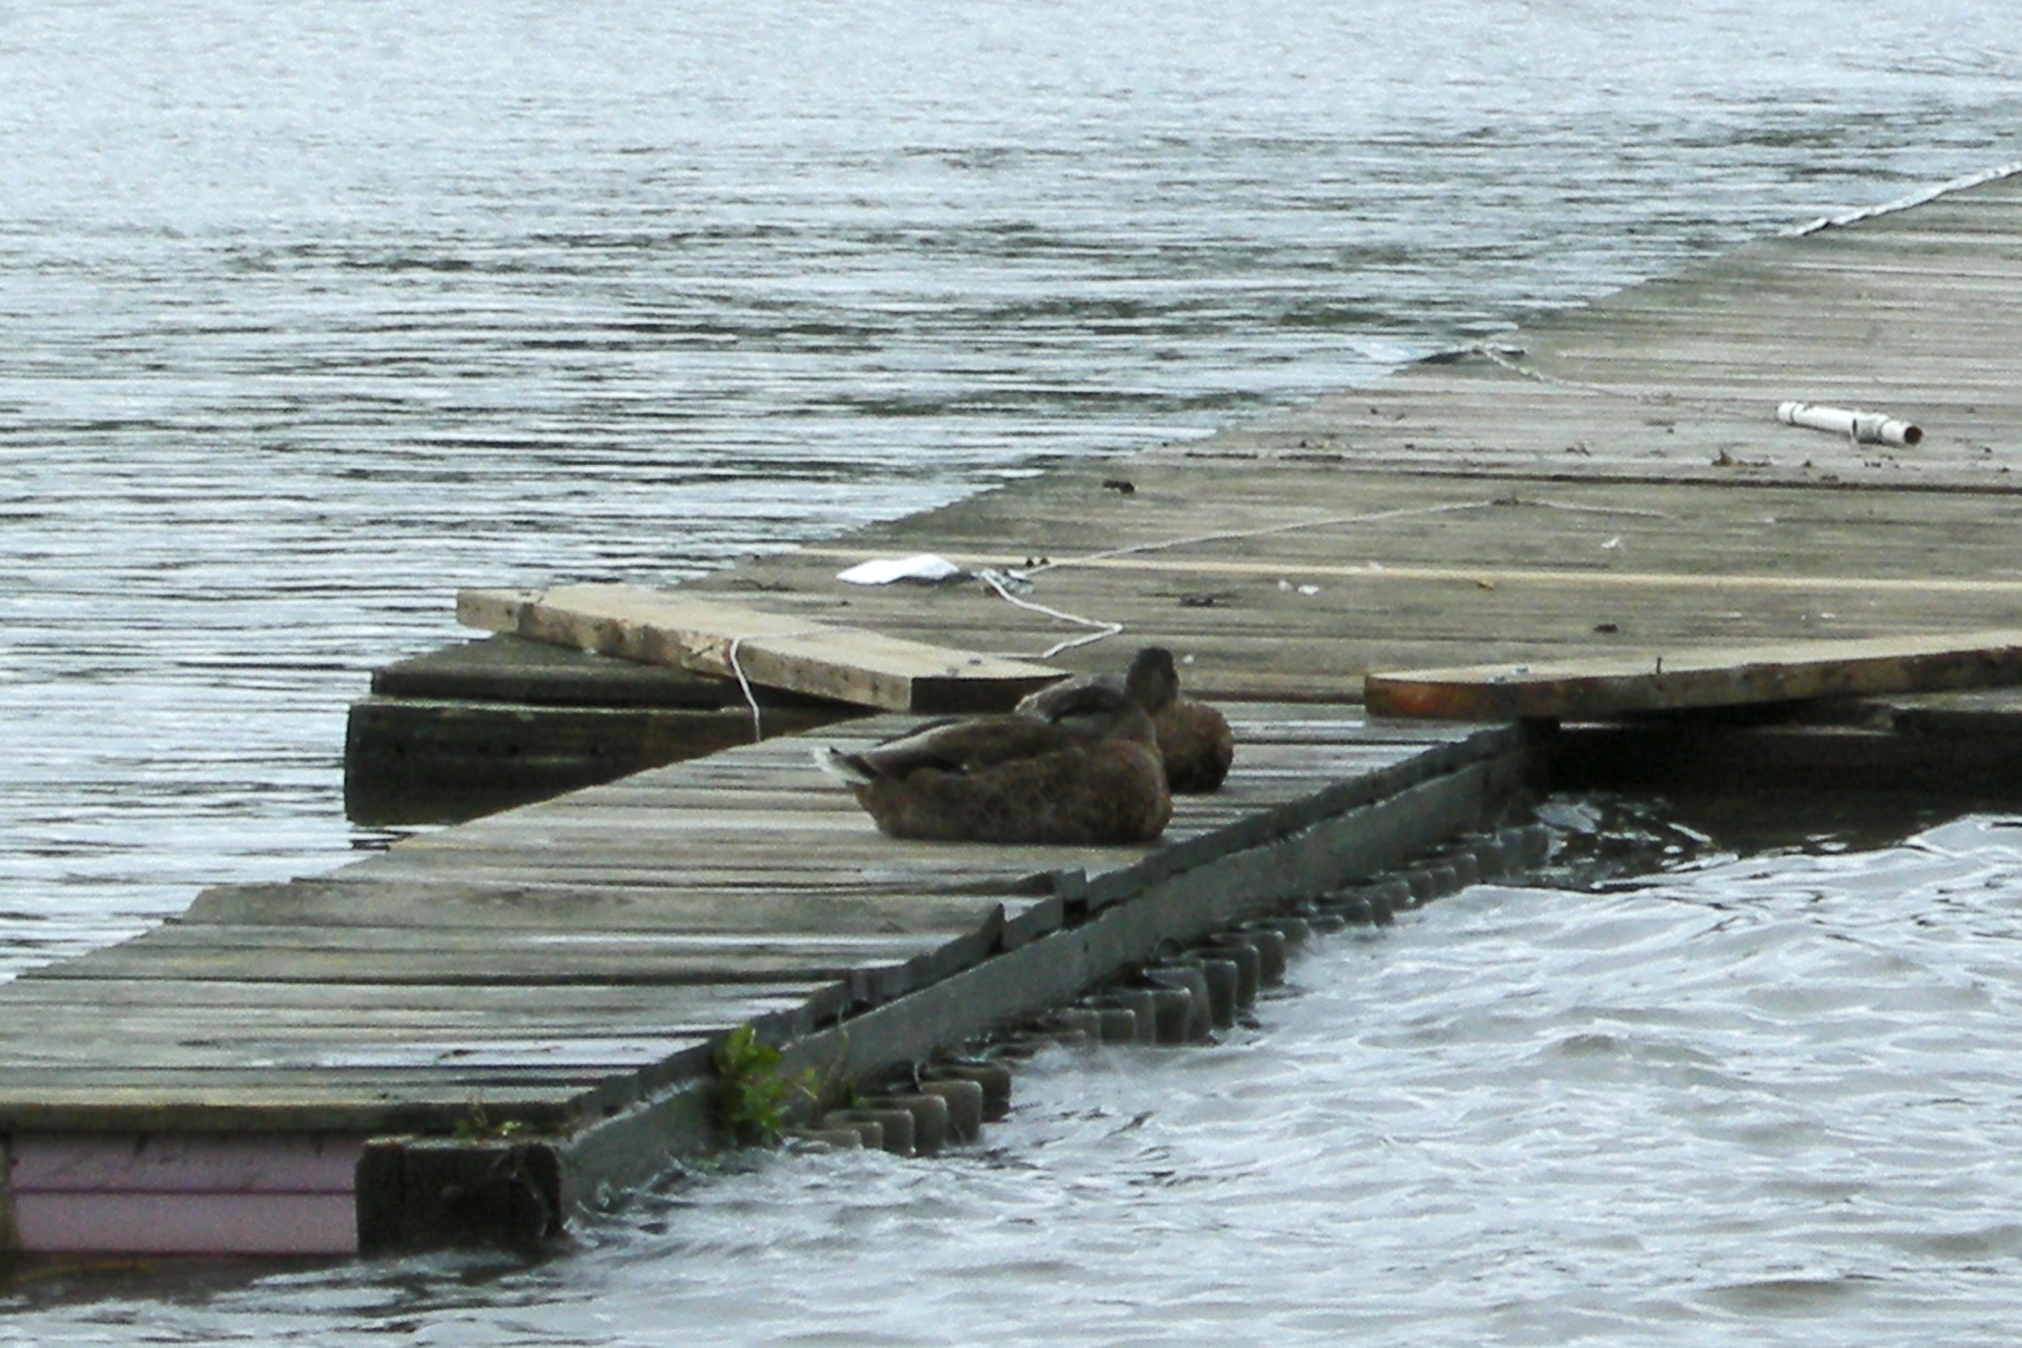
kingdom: Animalia
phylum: Chordata
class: Aves
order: Anseriformes
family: Anatidae
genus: Anas
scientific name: Anas platyrhynchos
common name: Mallard
